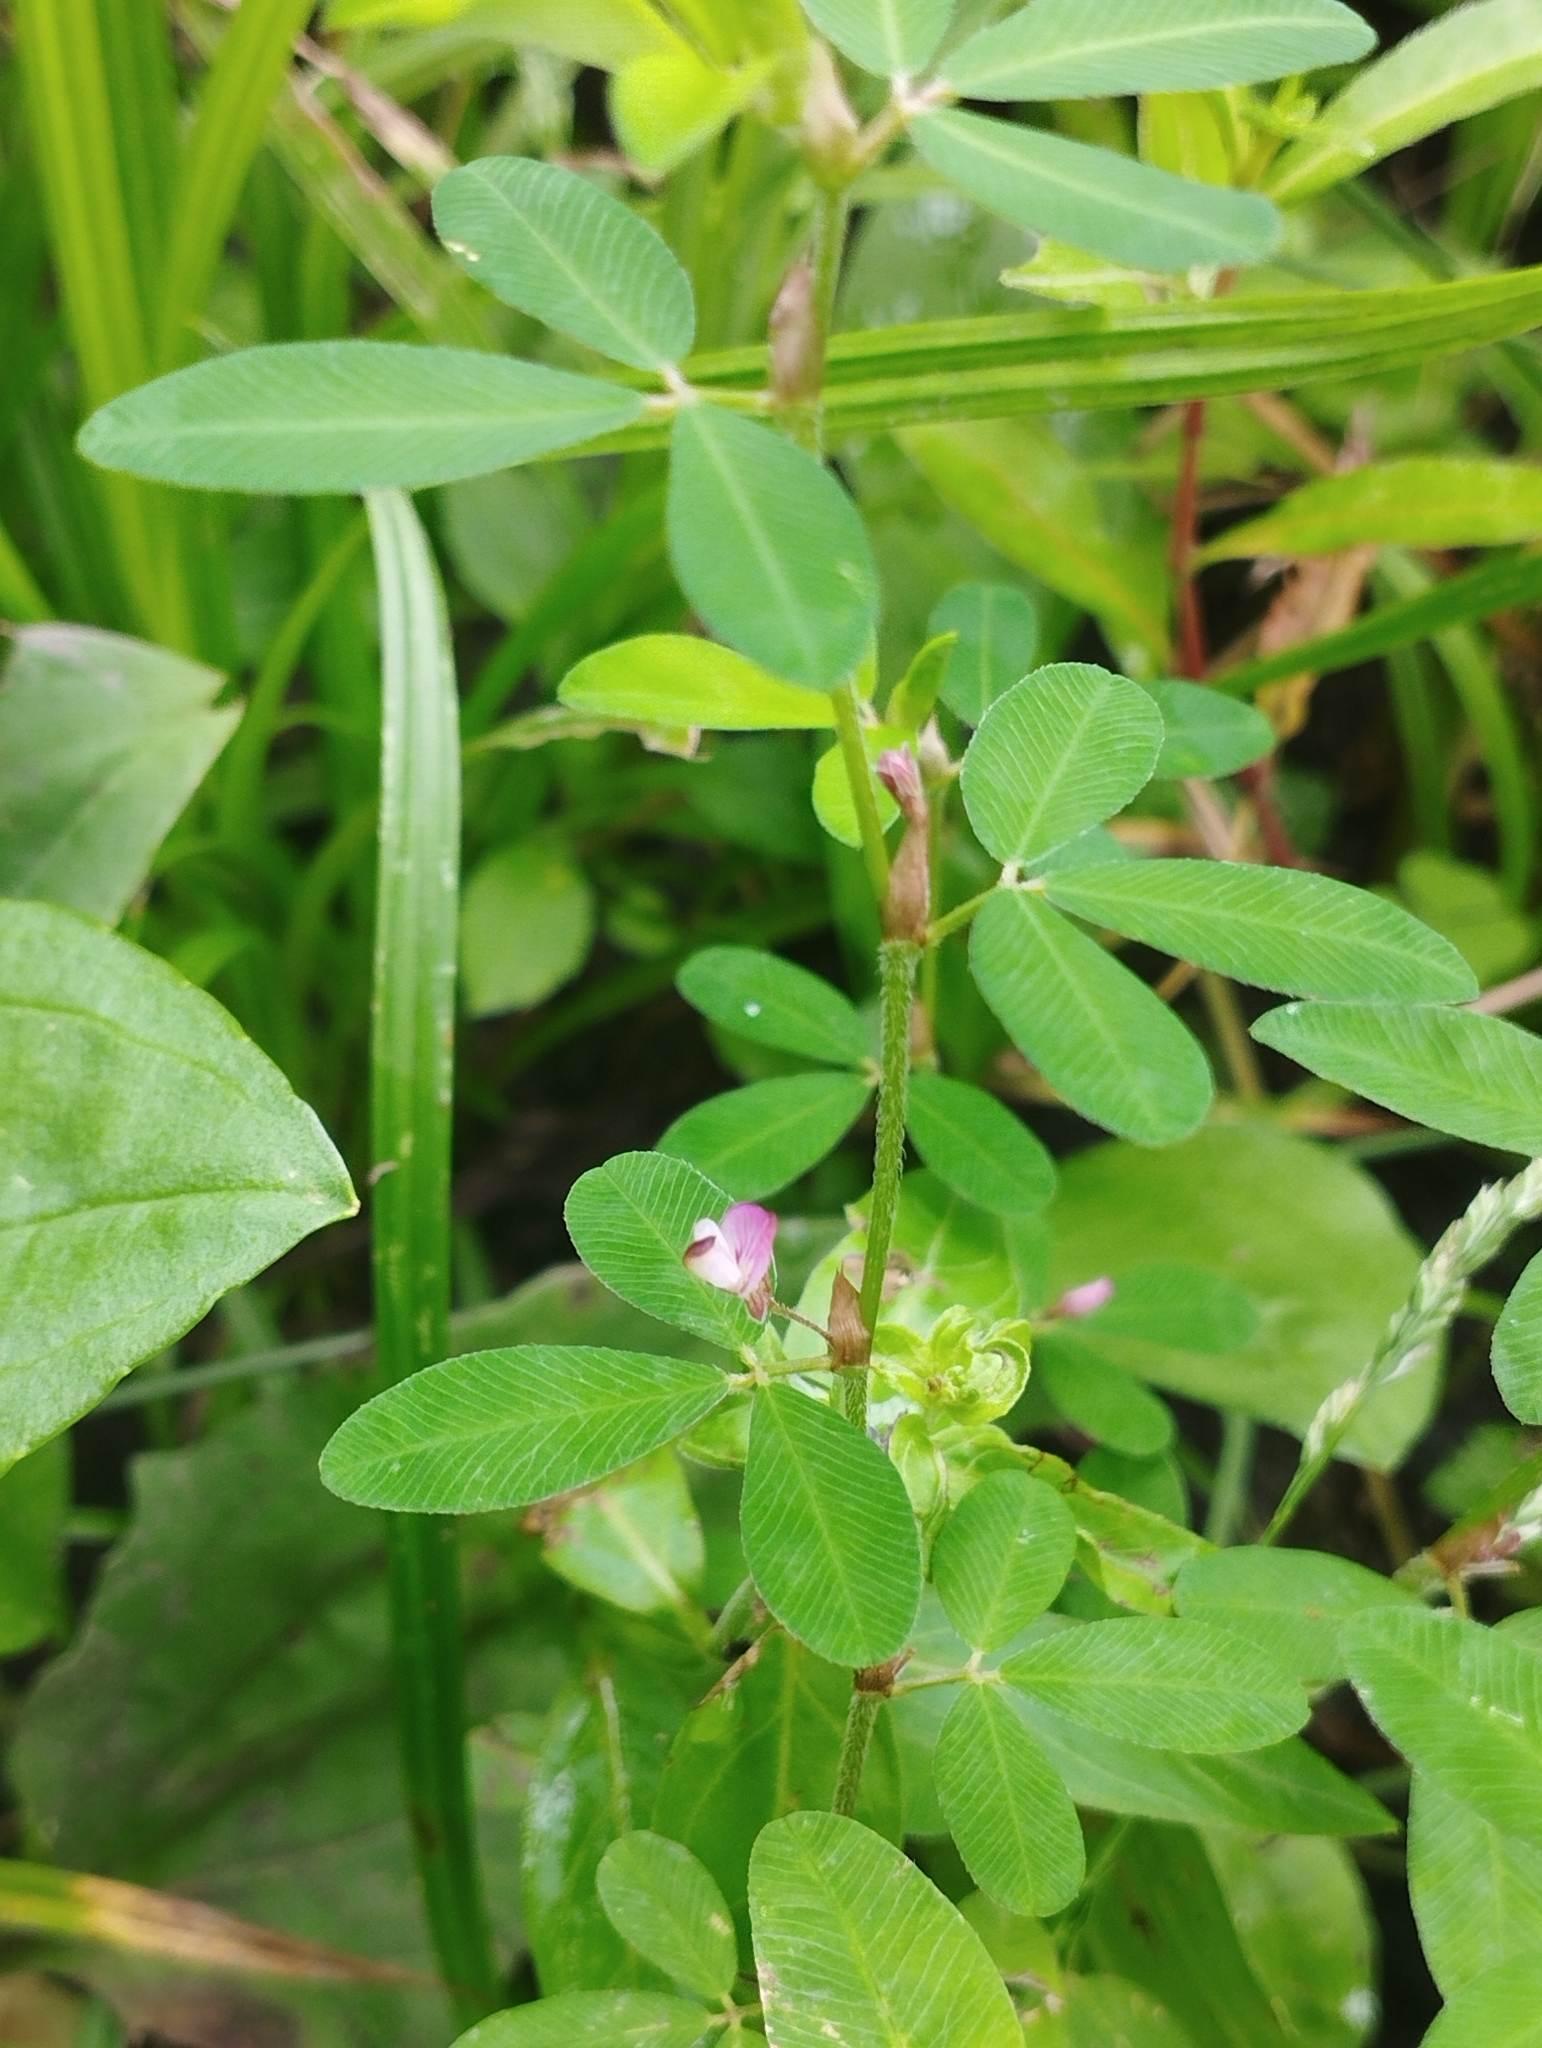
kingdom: Plantae
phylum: Tracheophyta
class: Magnoliopsida
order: Fabales
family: Fabaceae
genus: Kummerowia
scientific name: Kummerowia striata
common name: Japanese clover
